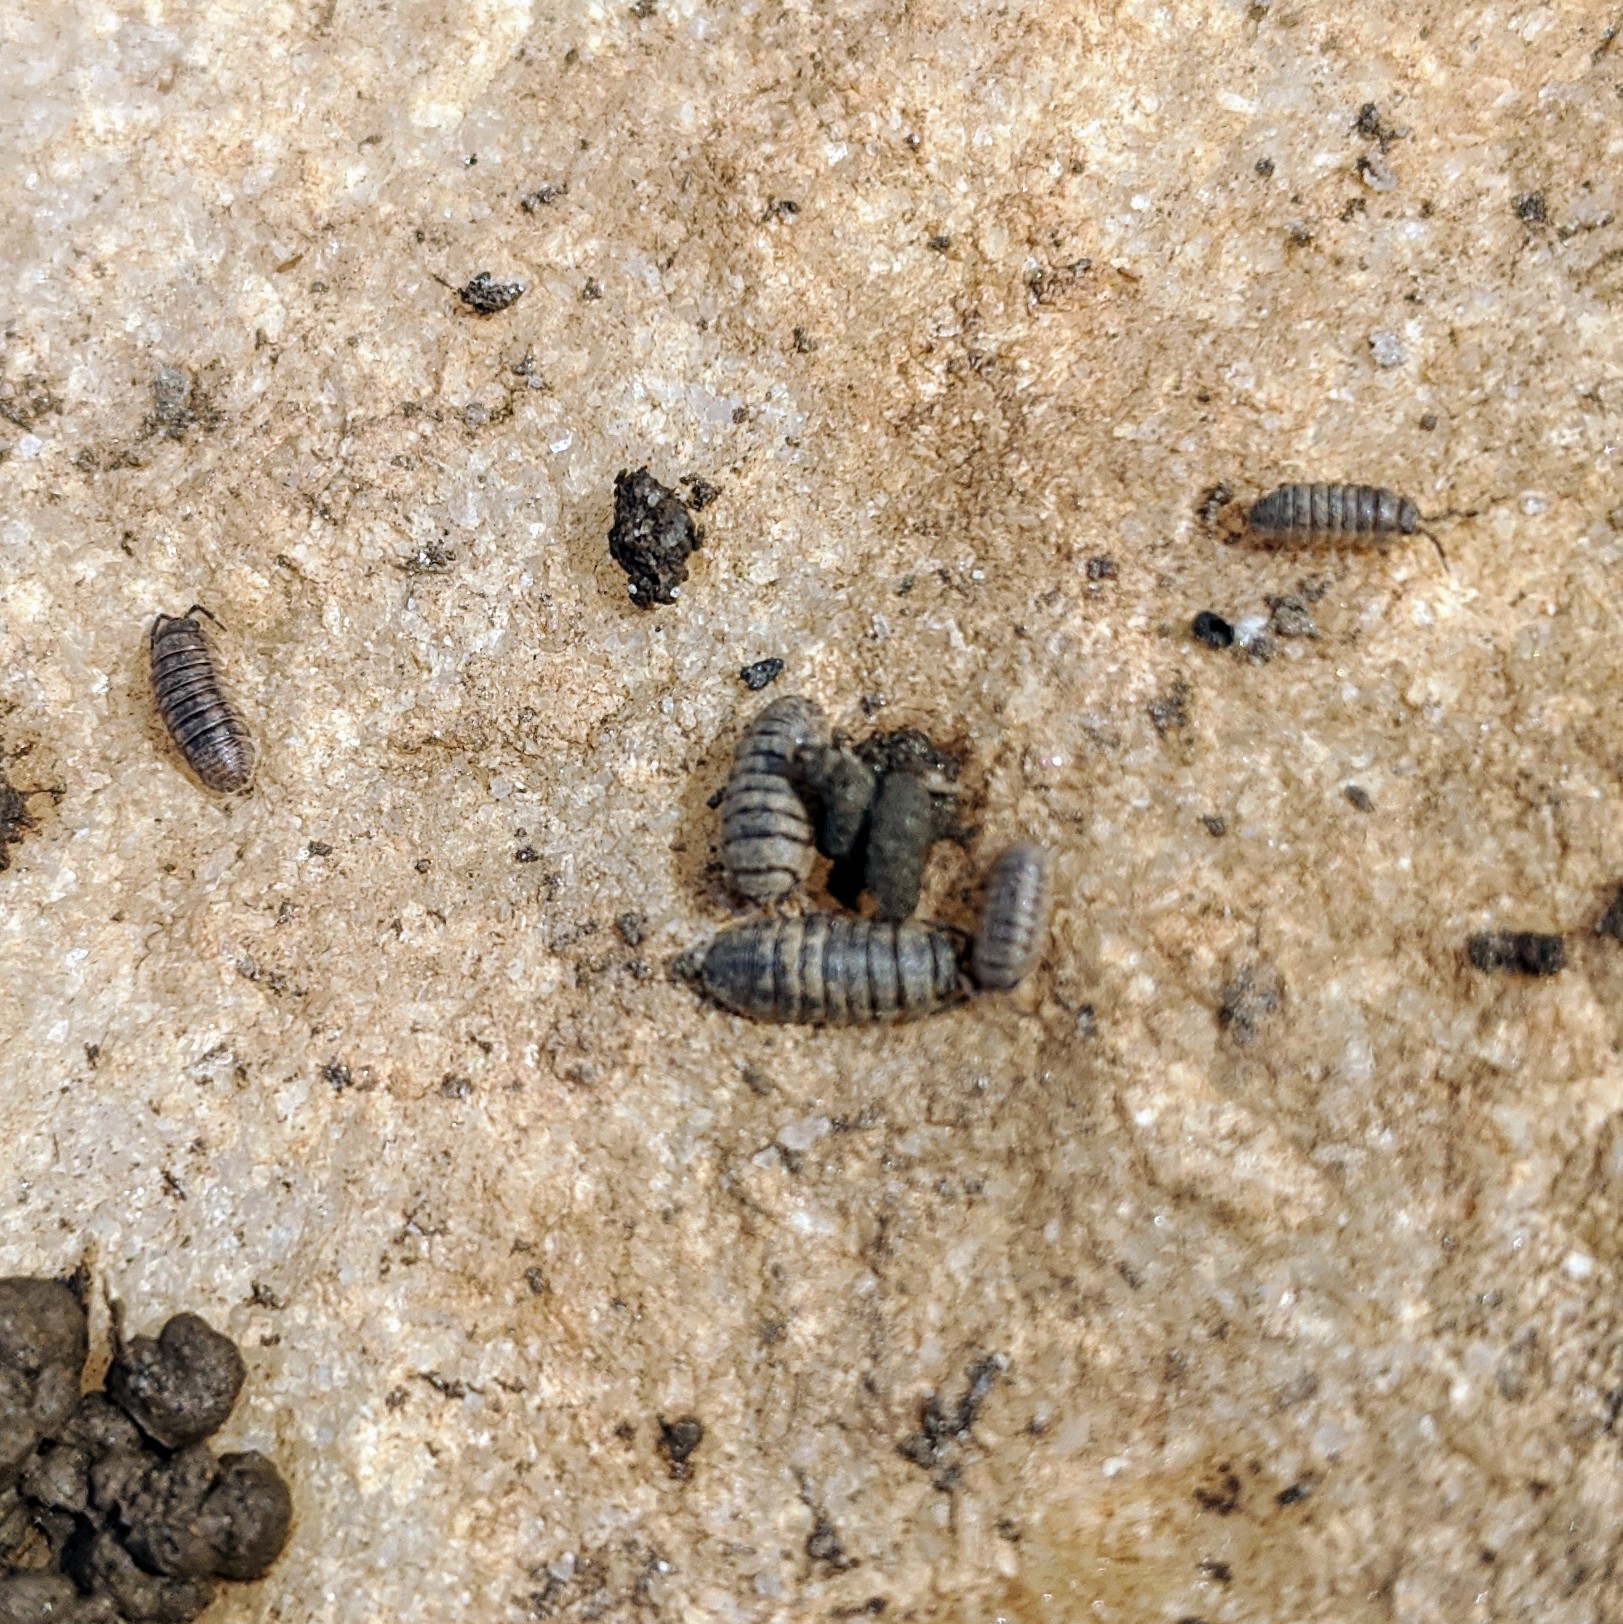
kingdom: Animalia
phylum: Arthropoda
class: Malacostraca
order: Isopoda
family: Armadillidiidae
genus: Armadillidium
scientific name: Armadillidium nasatum
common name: Isopod
